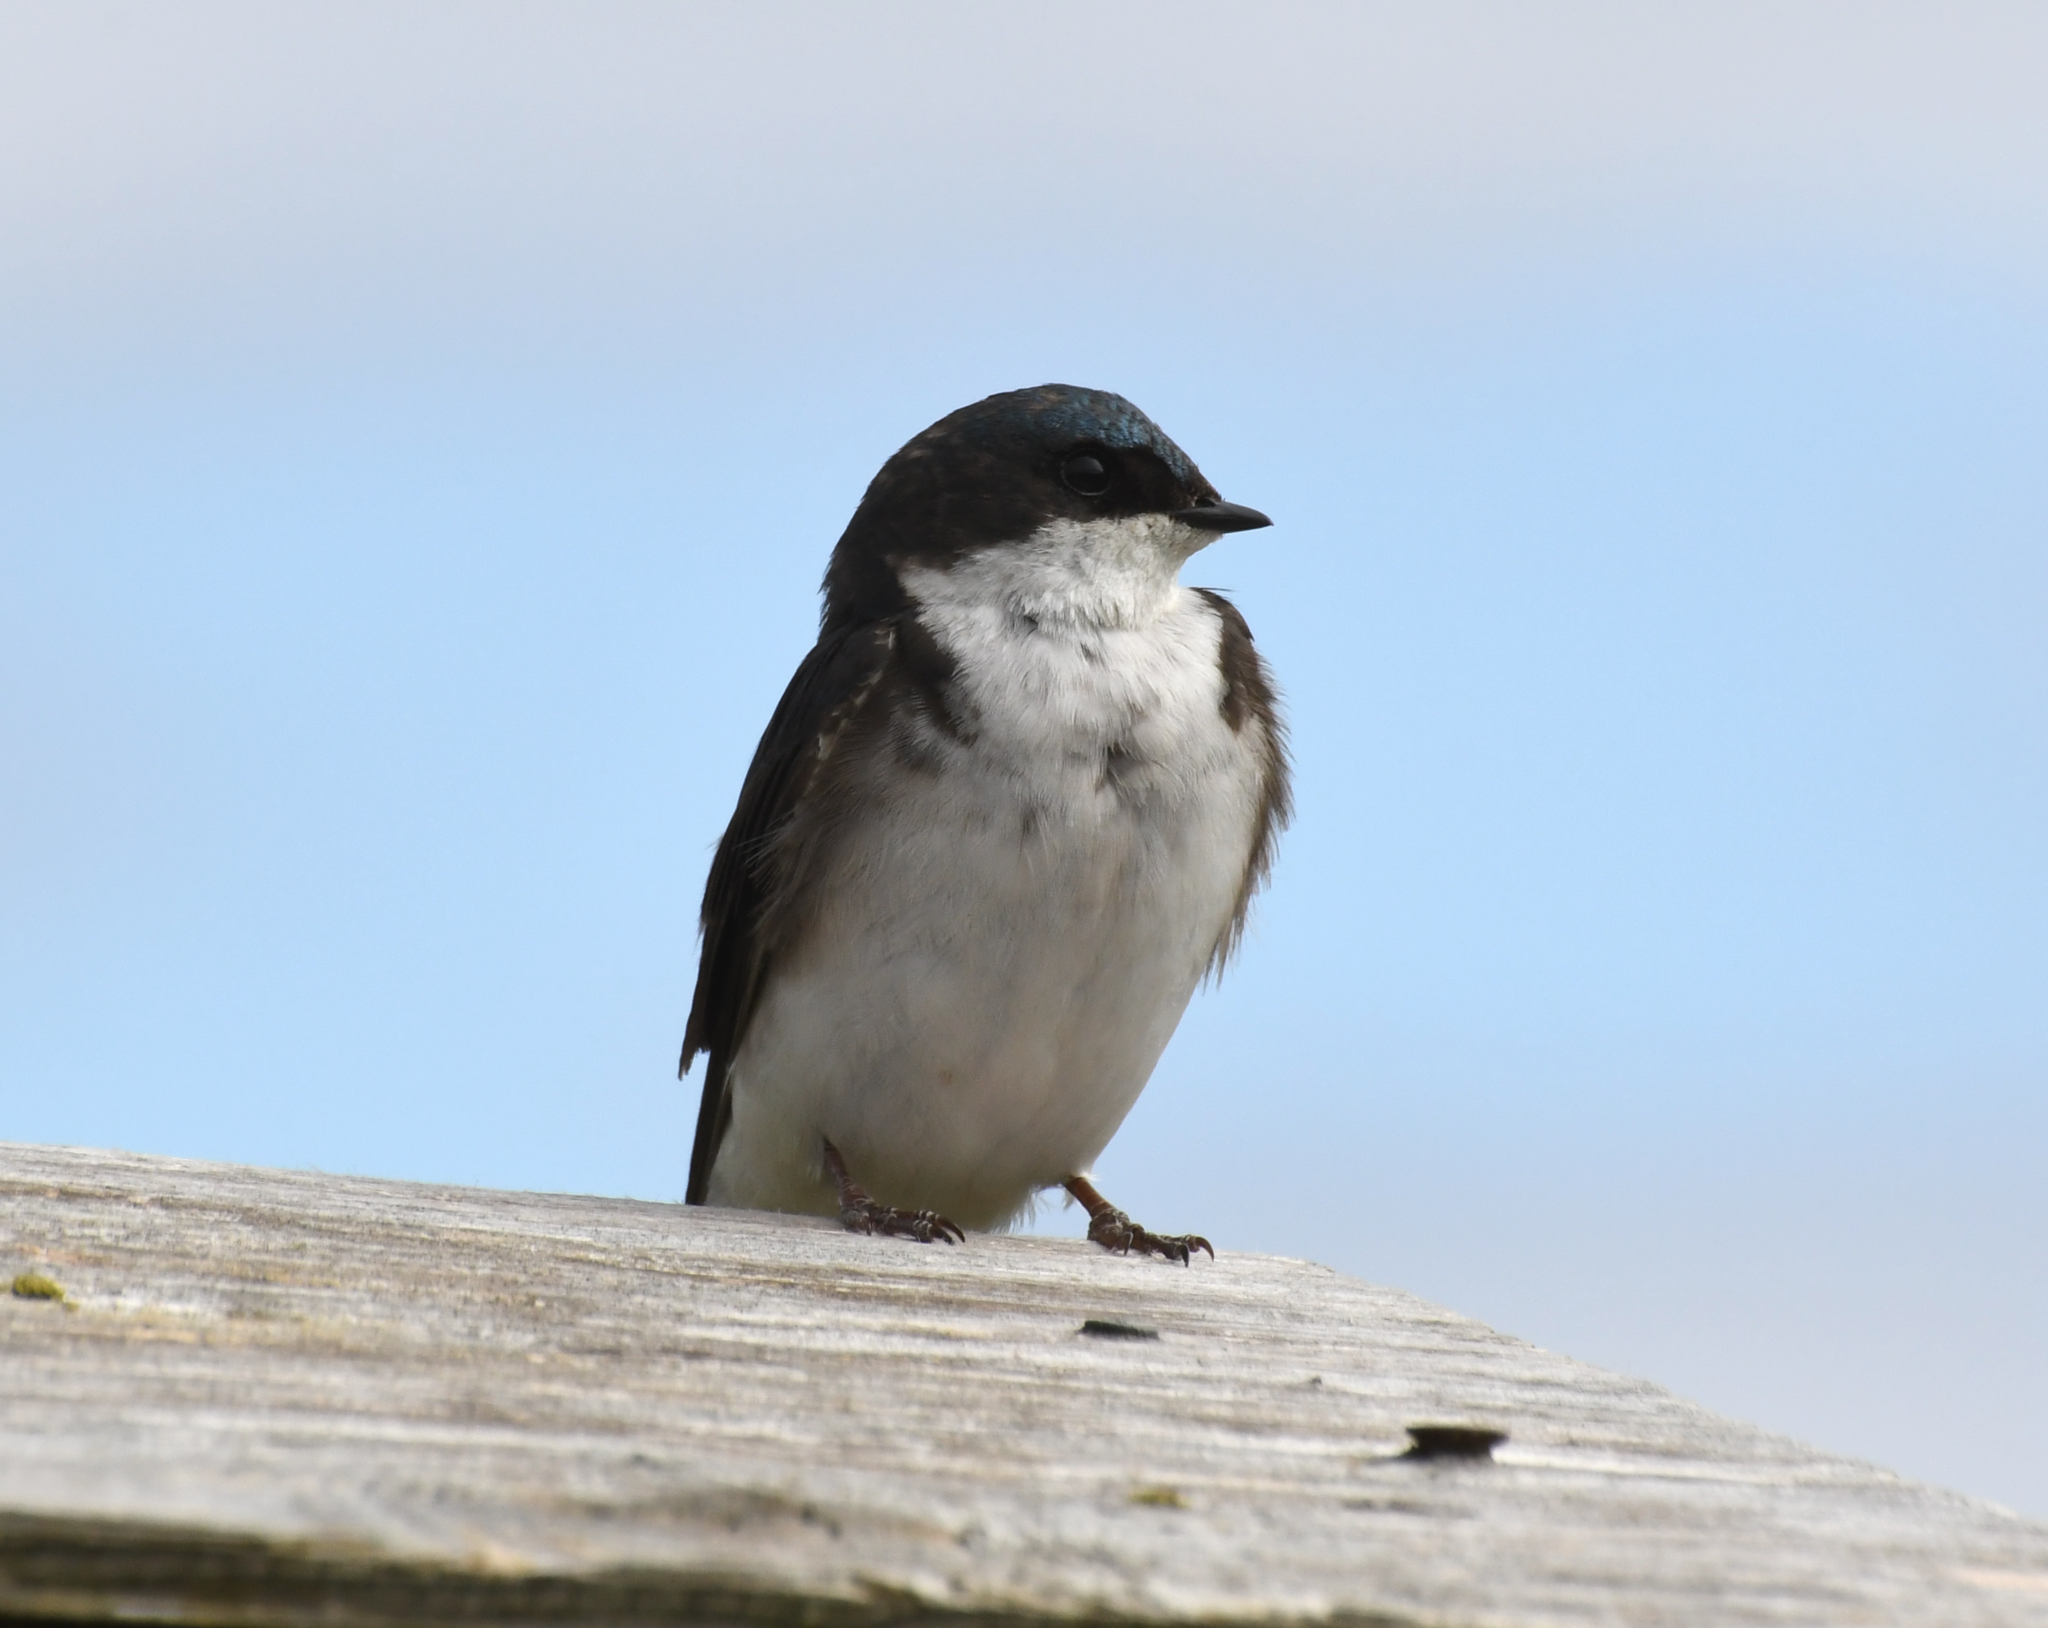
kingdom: Animalia
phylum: Chordata
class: Aves
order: Passeriformes
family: Hirundinidae
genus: Tachycineta
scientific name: Tachycineta bicolor
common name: Tree swallow
